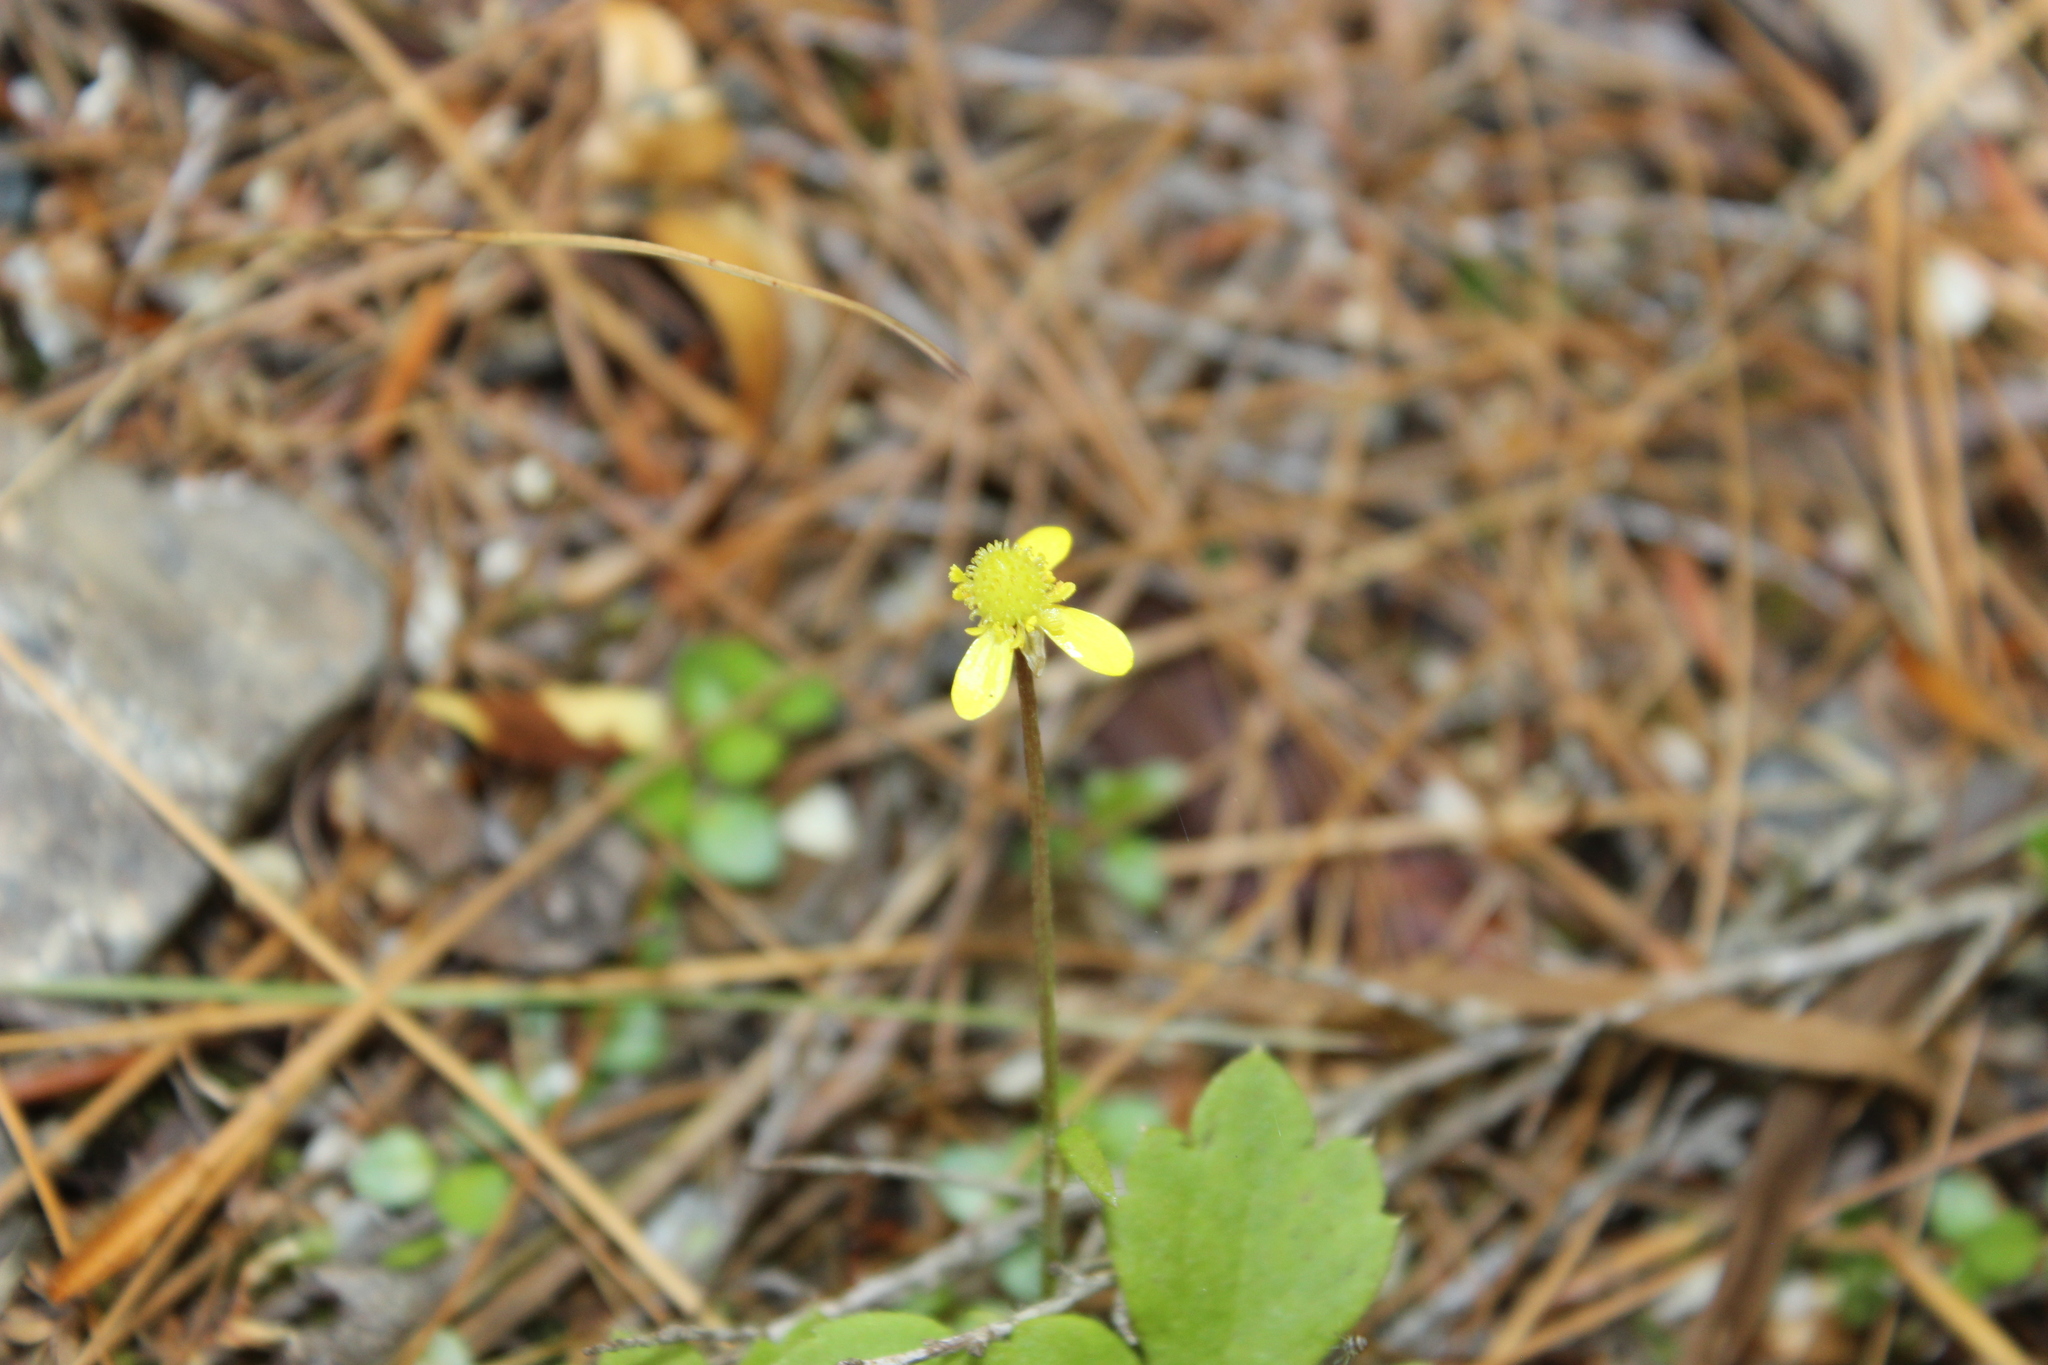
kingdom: Plantae
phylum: Tracheophyta
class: Magnoliopsida
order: Ranunculales
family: Ranunculaceae
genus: Ranunculus
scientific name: Ranunculus reflexus
